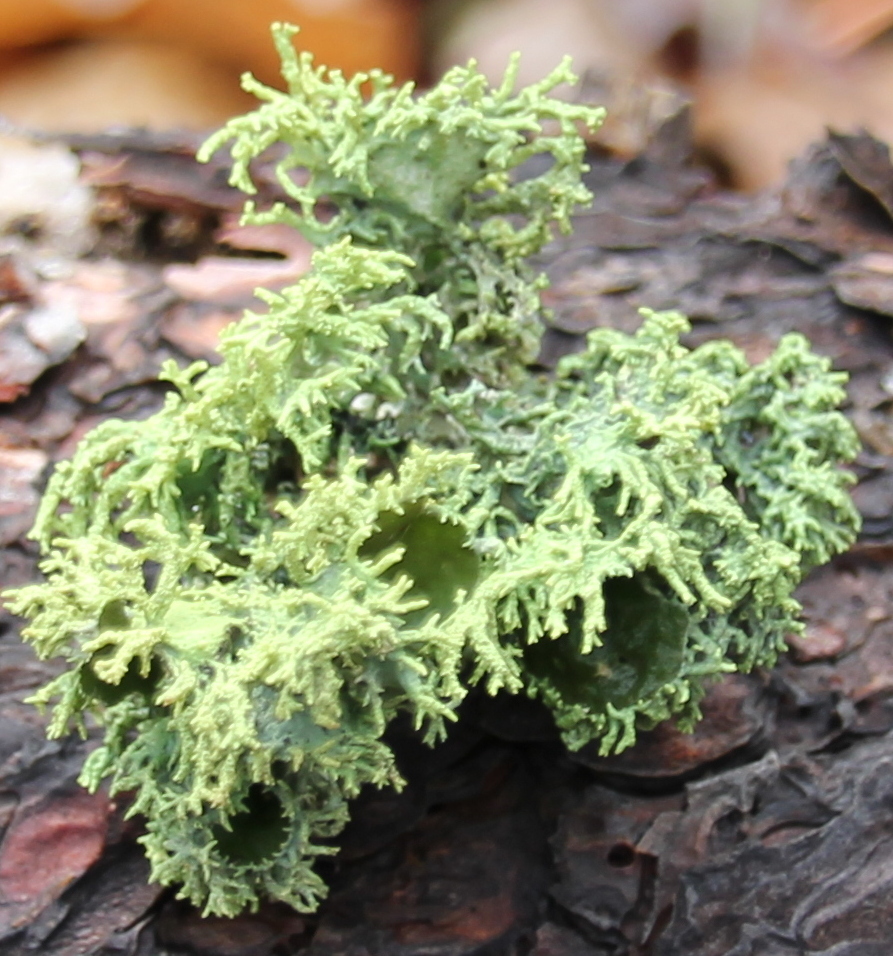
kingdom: Fungi
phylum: Ascomycota
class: Lecanoromycetes
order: Lecanorales
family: Parmeliaceae
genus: Letharia
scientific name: Letharia columbiana
